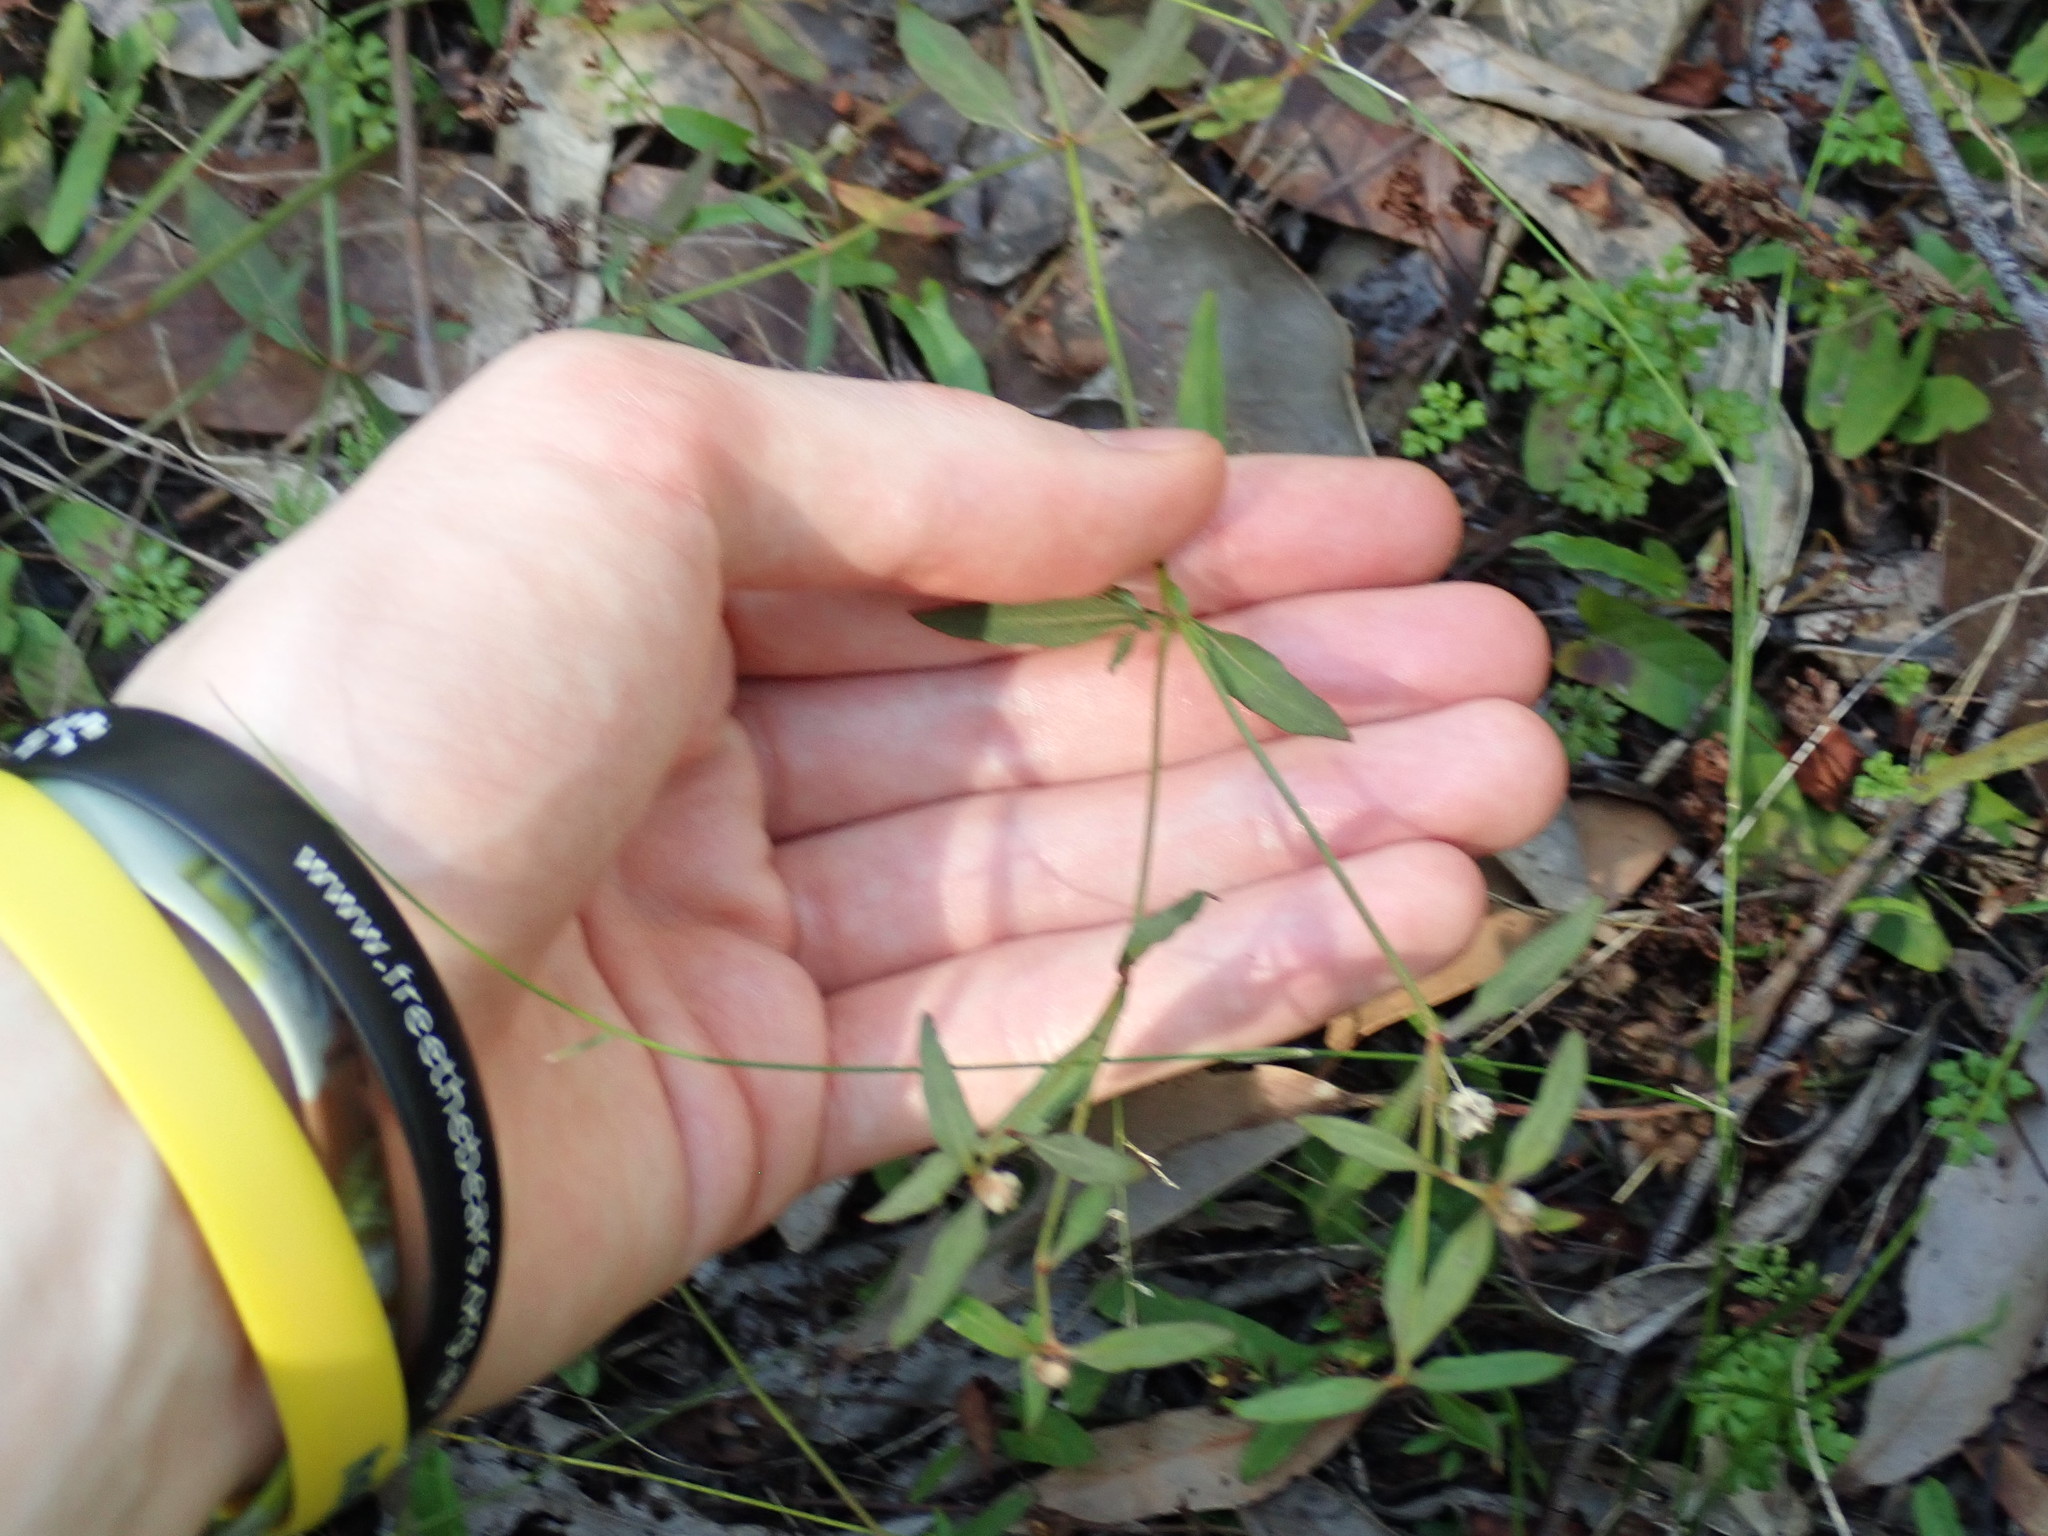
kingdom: Plantae
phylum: Tracheophyta
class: Magnoliopsida
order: Gentianales
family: Rubiaceae
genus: Opercularia
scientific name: Opercularia diphylla
